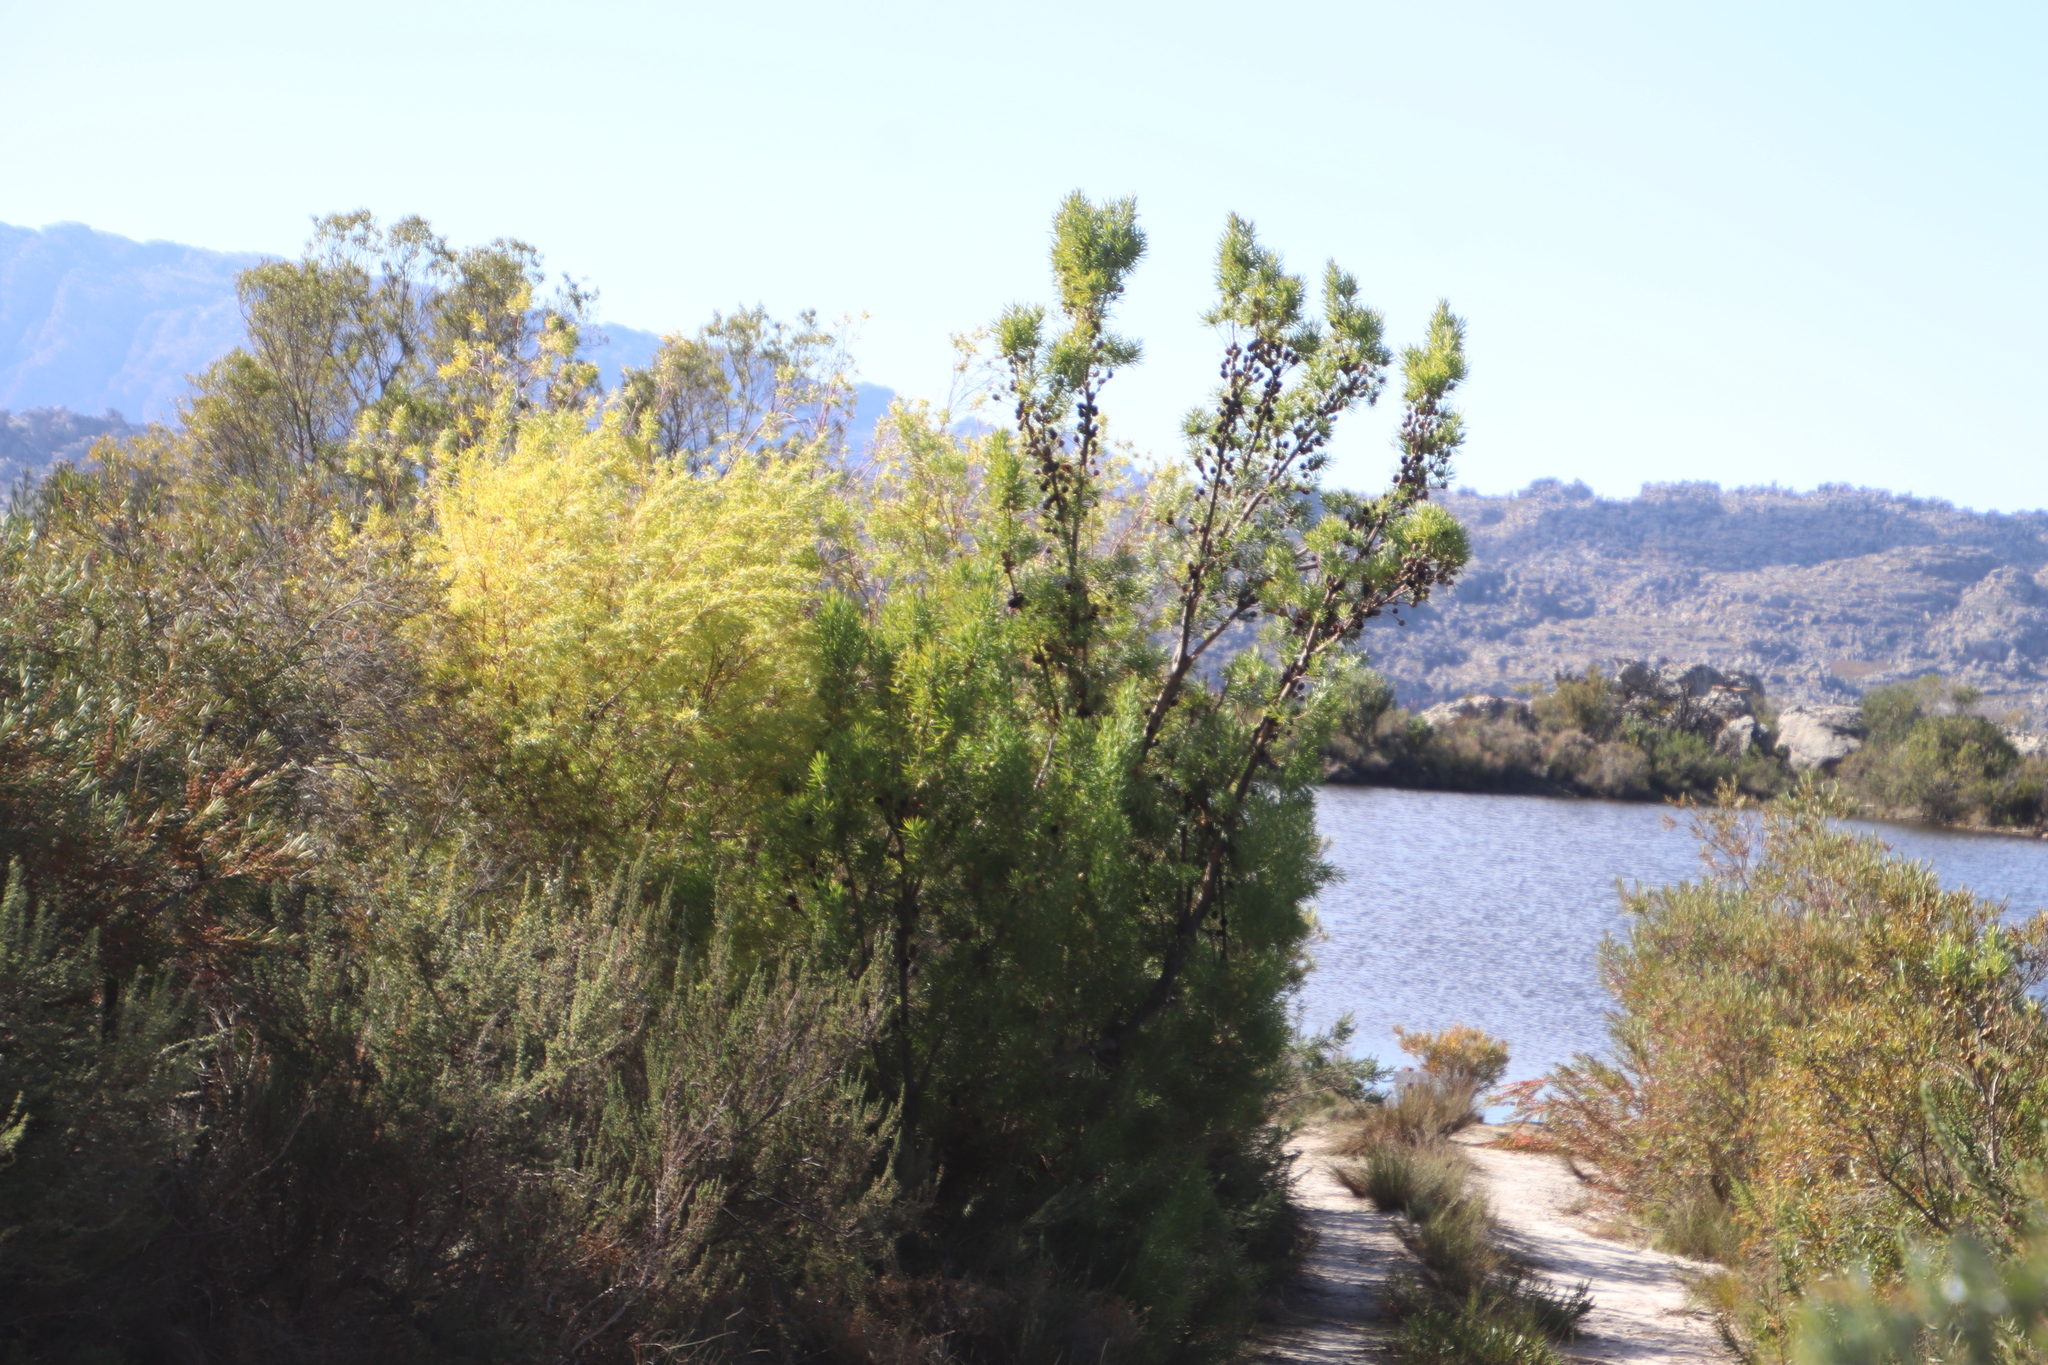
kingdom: Plantae
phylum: Tracheophyta
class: Magnoliopsida
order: Proteales
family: Proteaceae
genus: Leucadendron
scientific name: Leucadendron salicifolium
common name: Common stream conebush
